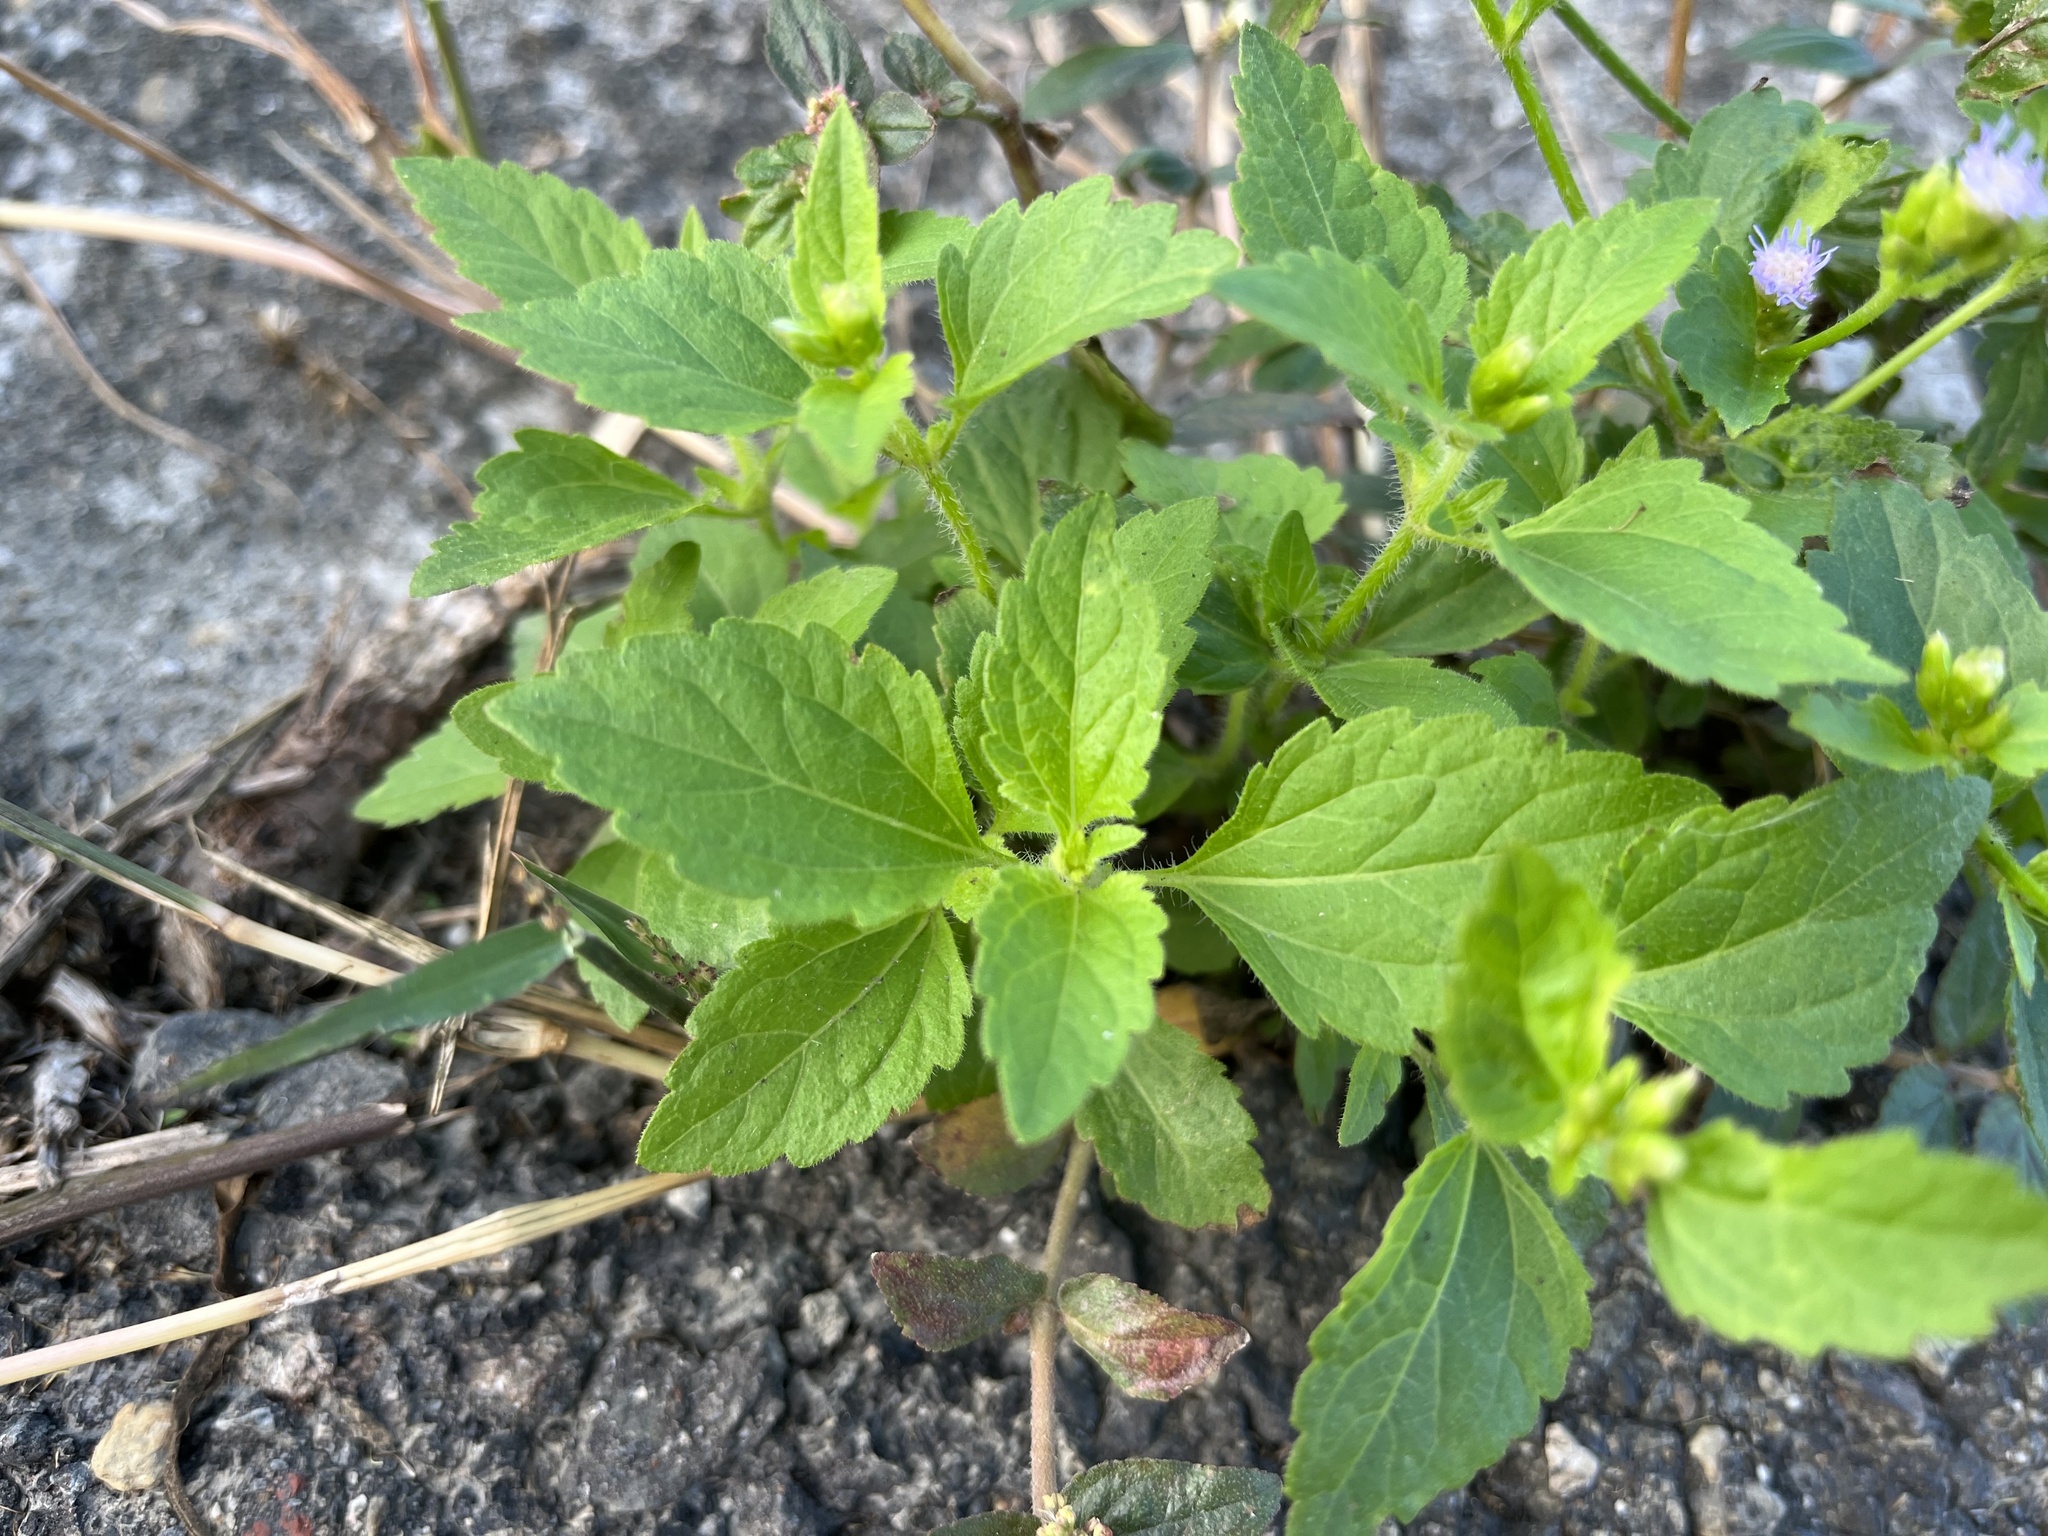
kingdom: Plantae
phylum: Tracheophyta
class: Magnoliopsida
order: Asterales
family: Asteraceae
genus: Praxelis
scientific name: Praxelis clematidea
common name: Praxelis
